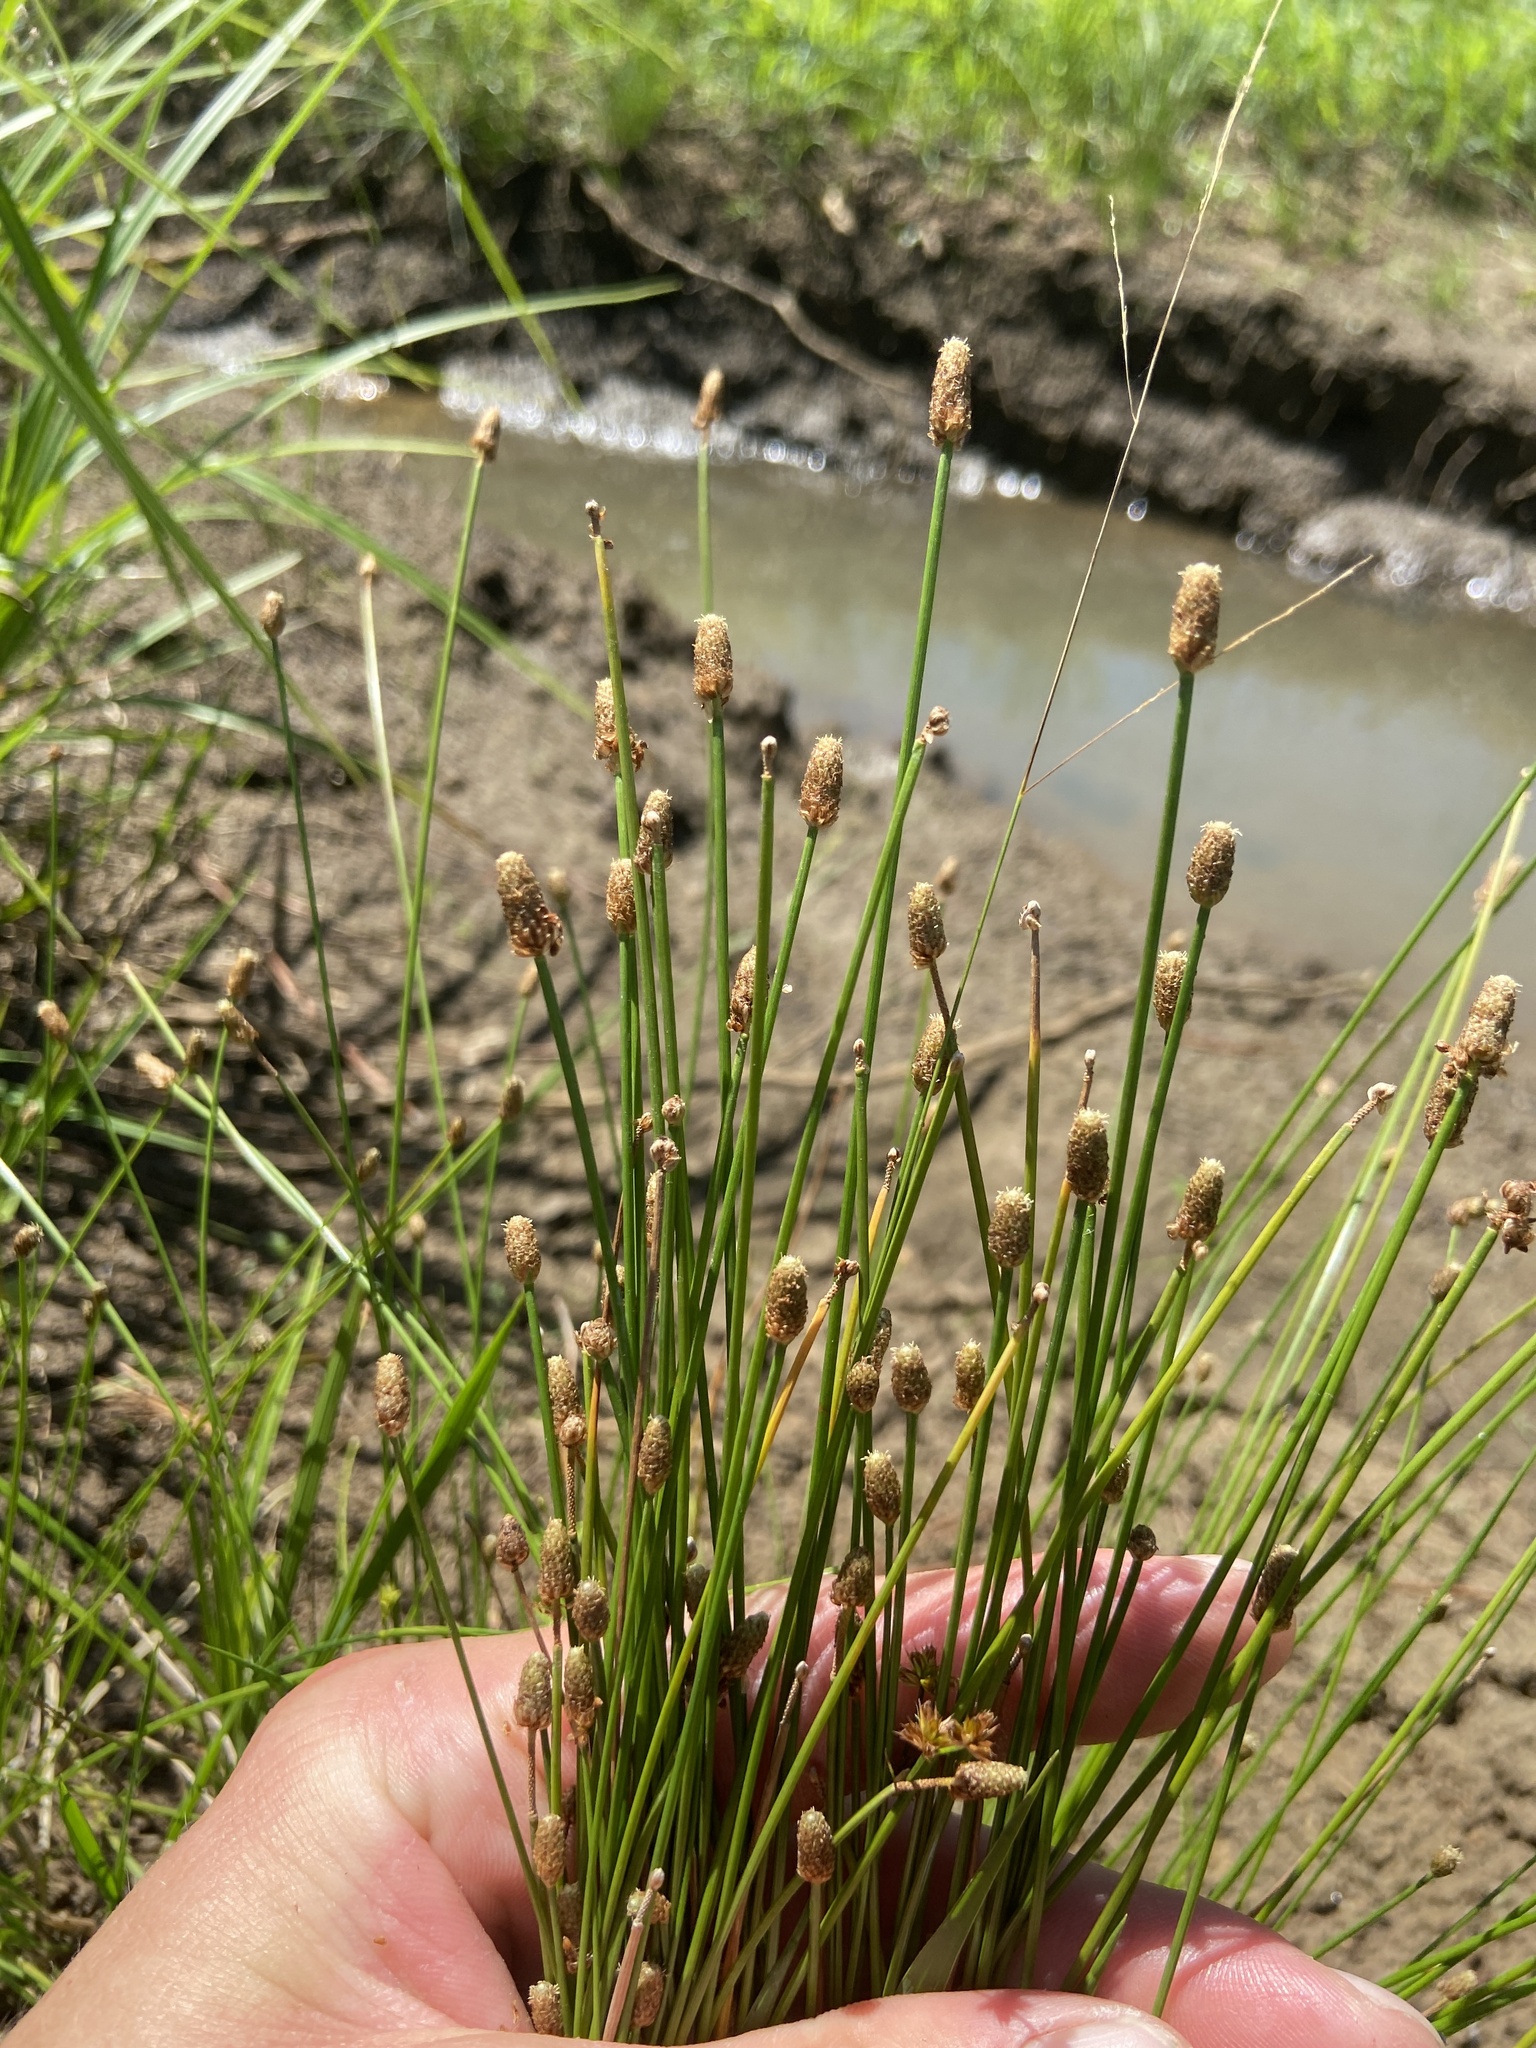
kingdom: Plantae
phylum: Tracheophyta
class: Liliopsida
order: Poales
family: Cyperaceae
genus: Eleocharis
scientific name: Eleocharis obtusa
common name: Blunt spikerush
